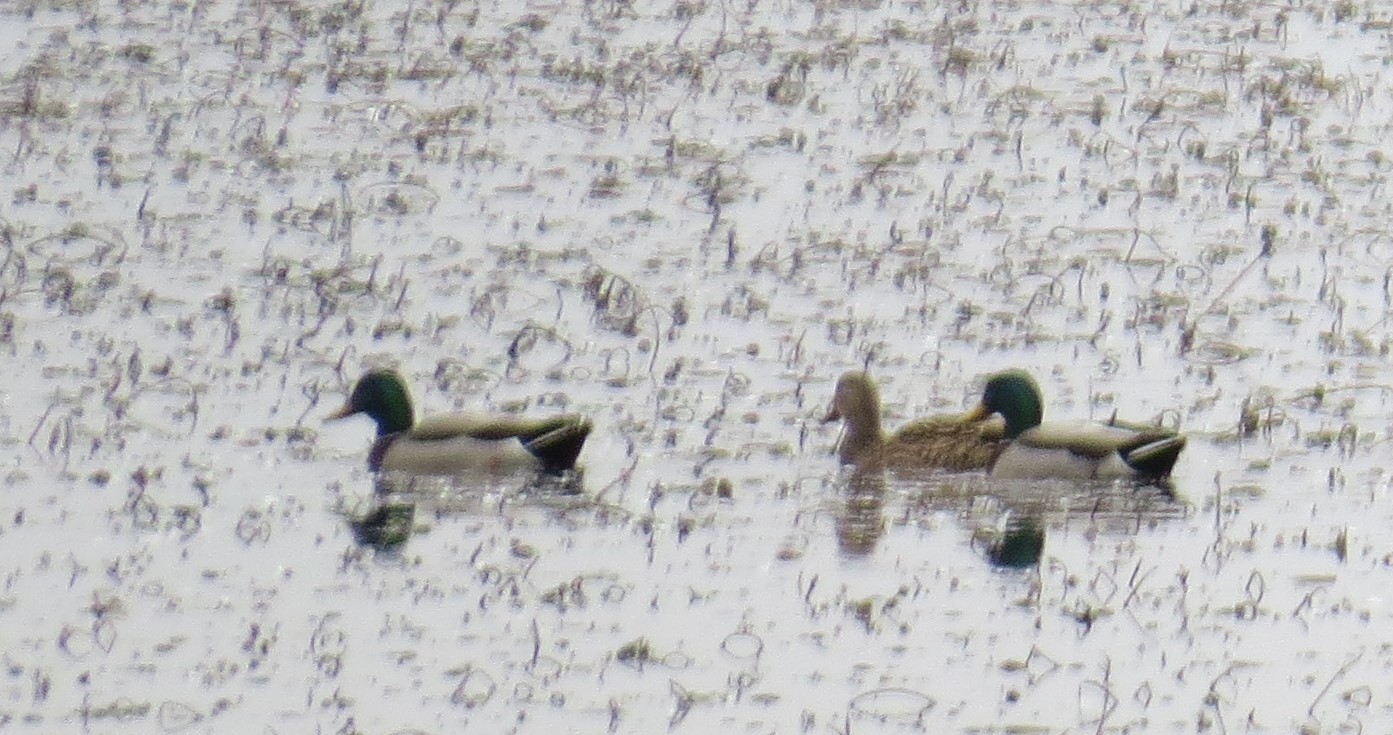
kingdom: Animalia
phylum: Chordata
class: Aves
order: Anseriformes
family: Anatidae
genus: Anas
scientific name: Anas platyrhynchos
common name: Mallard
